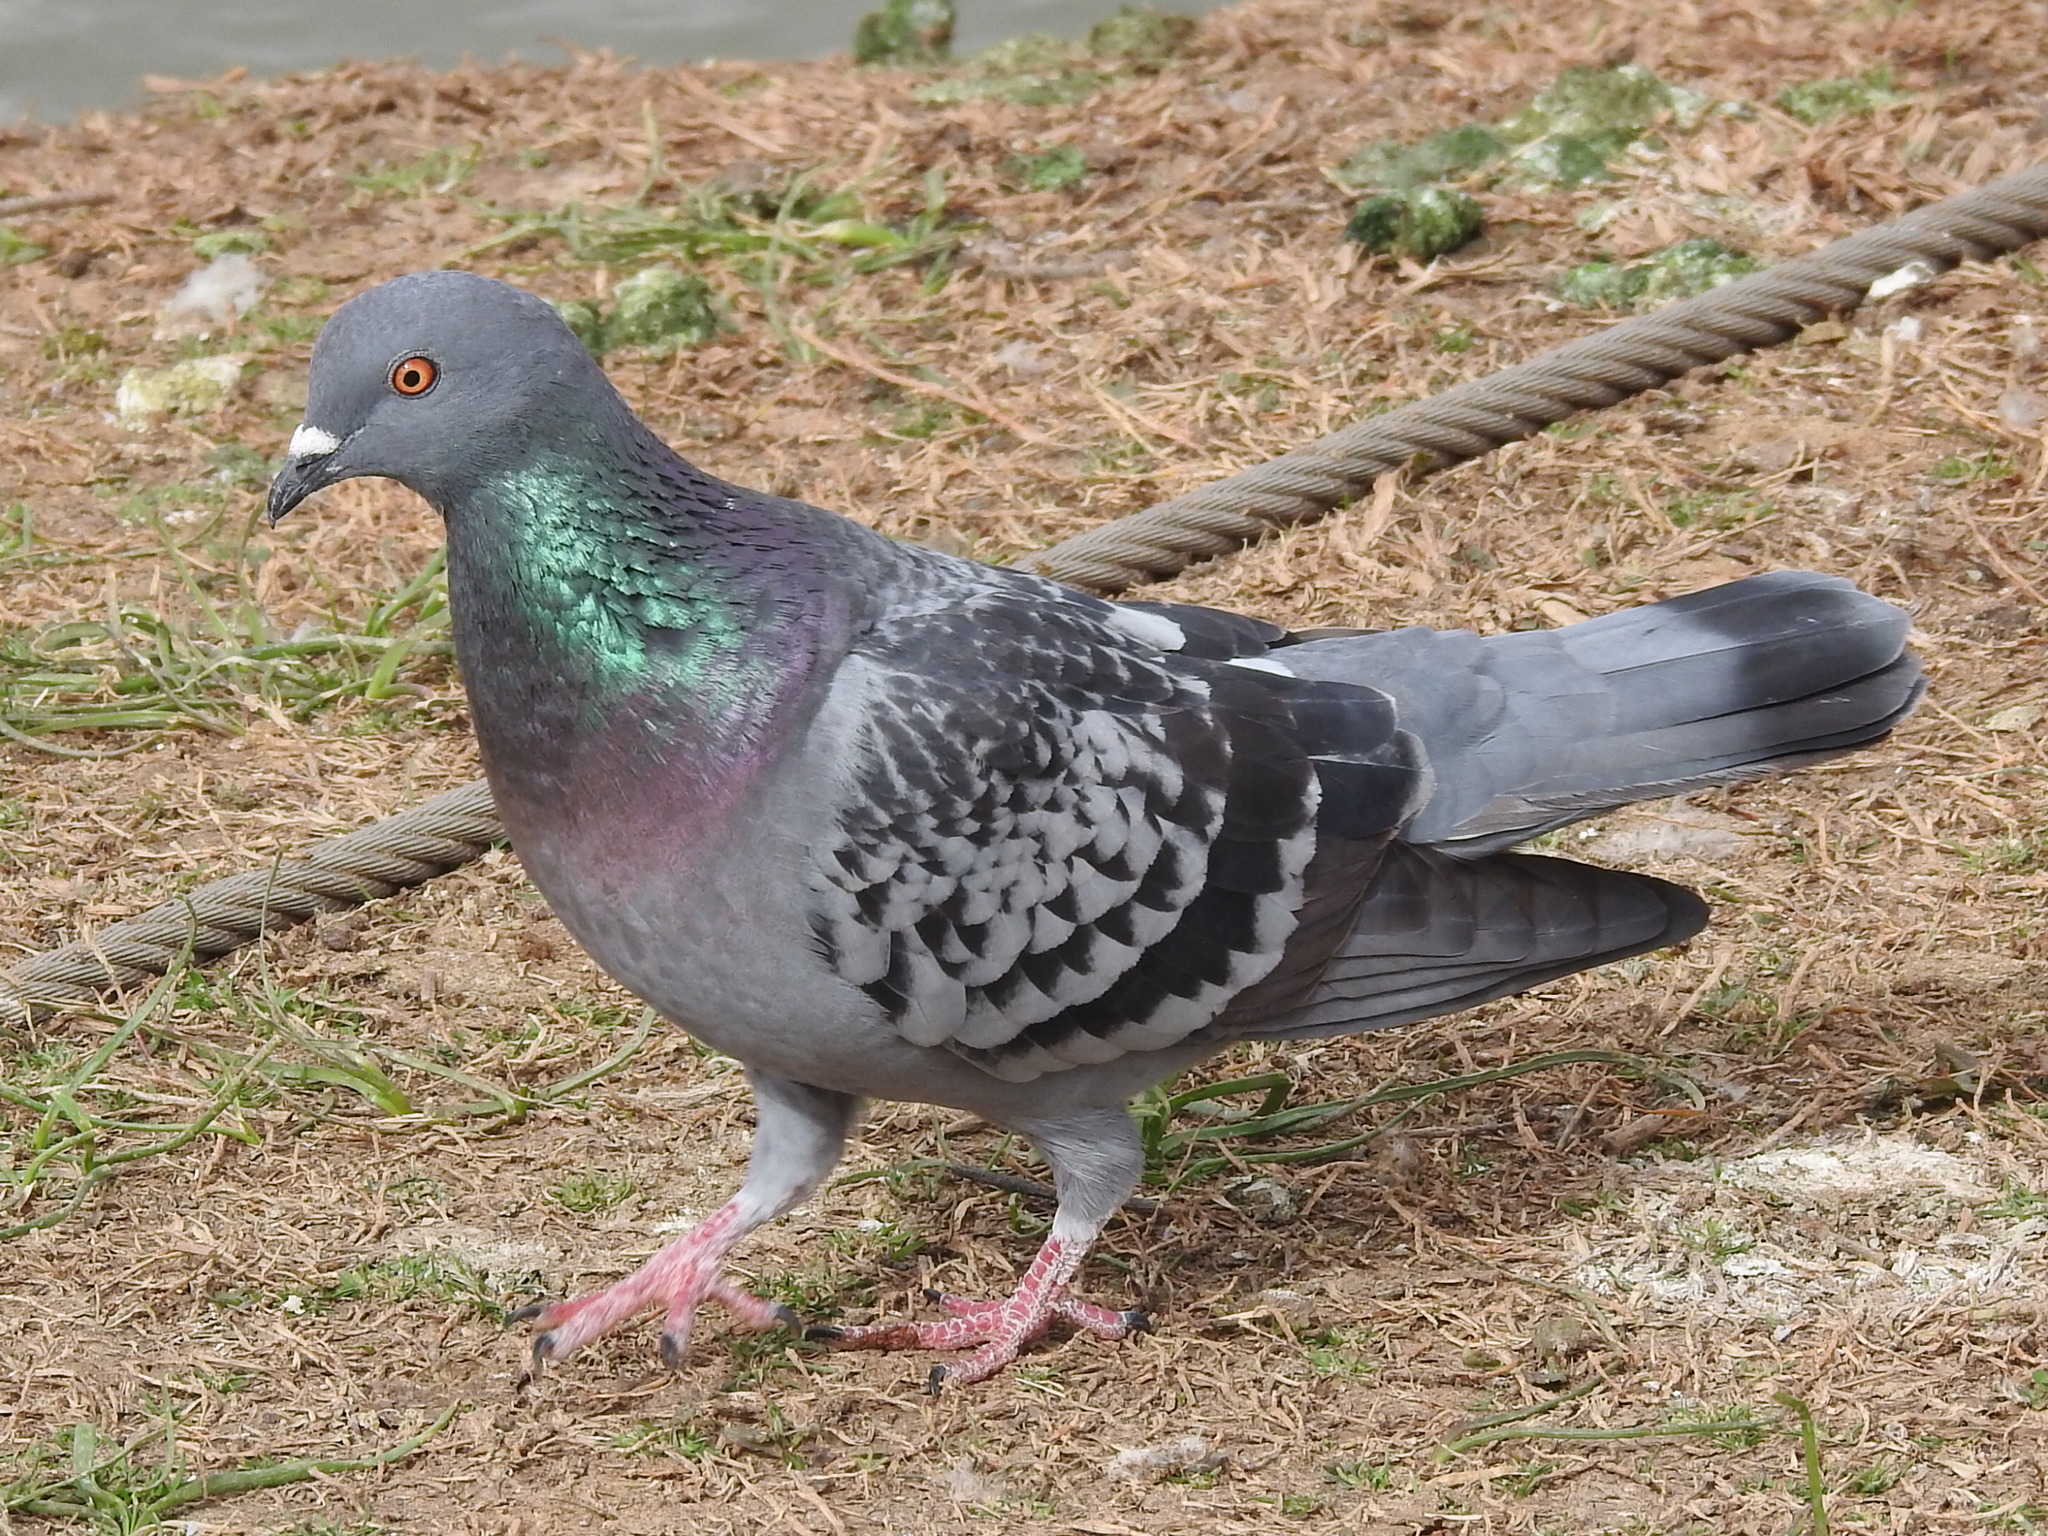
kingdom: Animalia
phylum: Chordata
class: Aves
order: Columbiformes
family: Columbidae
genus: Columba
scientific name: Columba livia
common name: Rock pigeon
